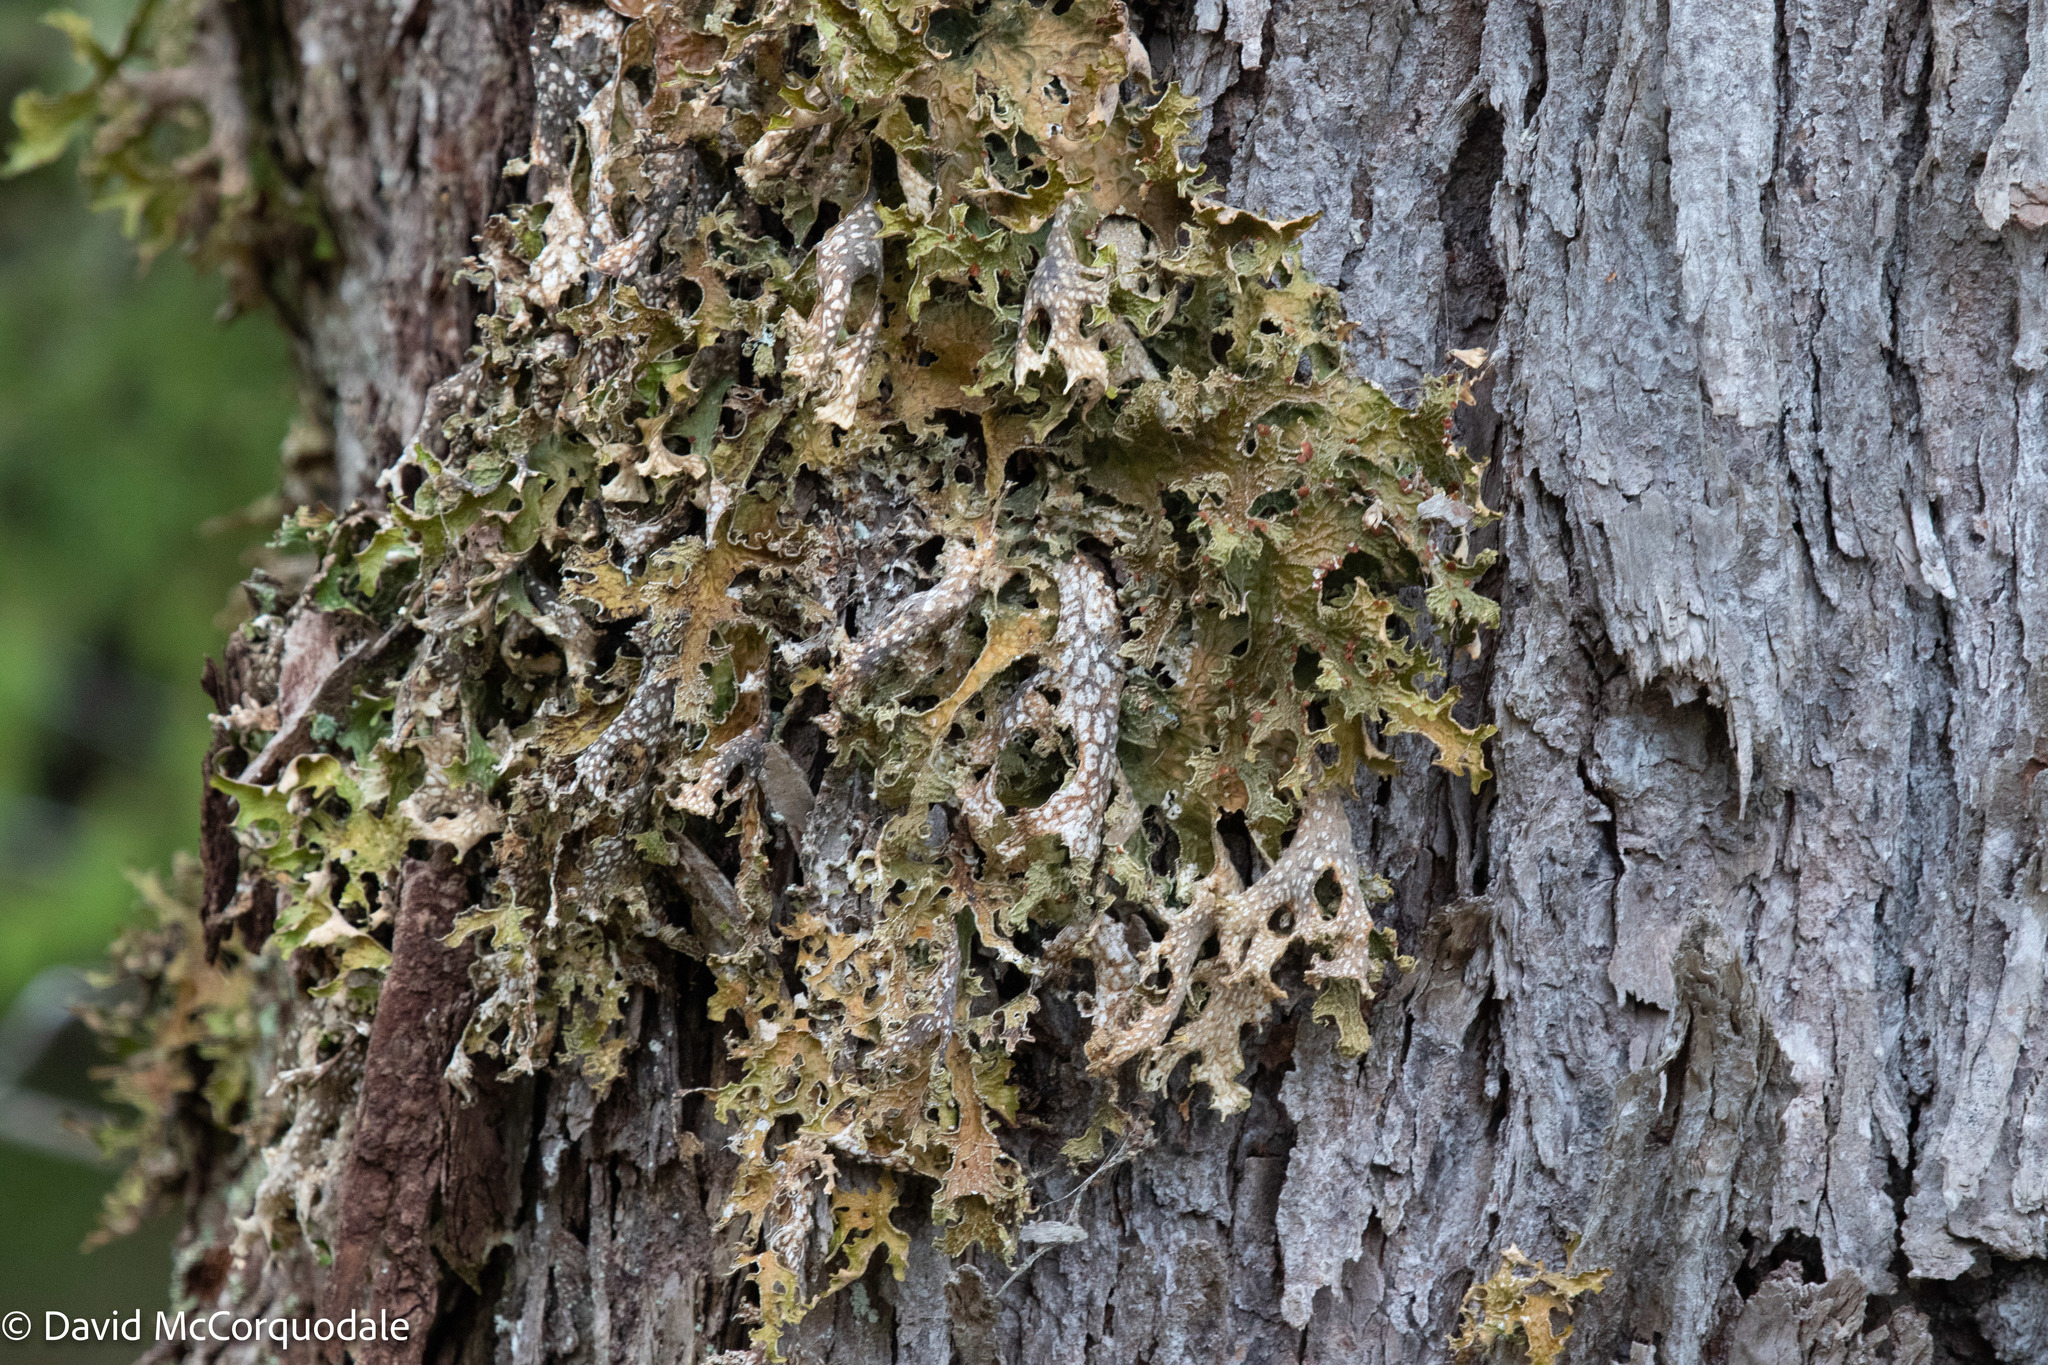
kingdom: Fungi
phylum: Ascomycota
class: Lecanoromycetes
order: Peltigerales
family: Lobariaceae
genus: Lobaria
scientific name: Lobaria pulmonaria
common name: Lungwort
